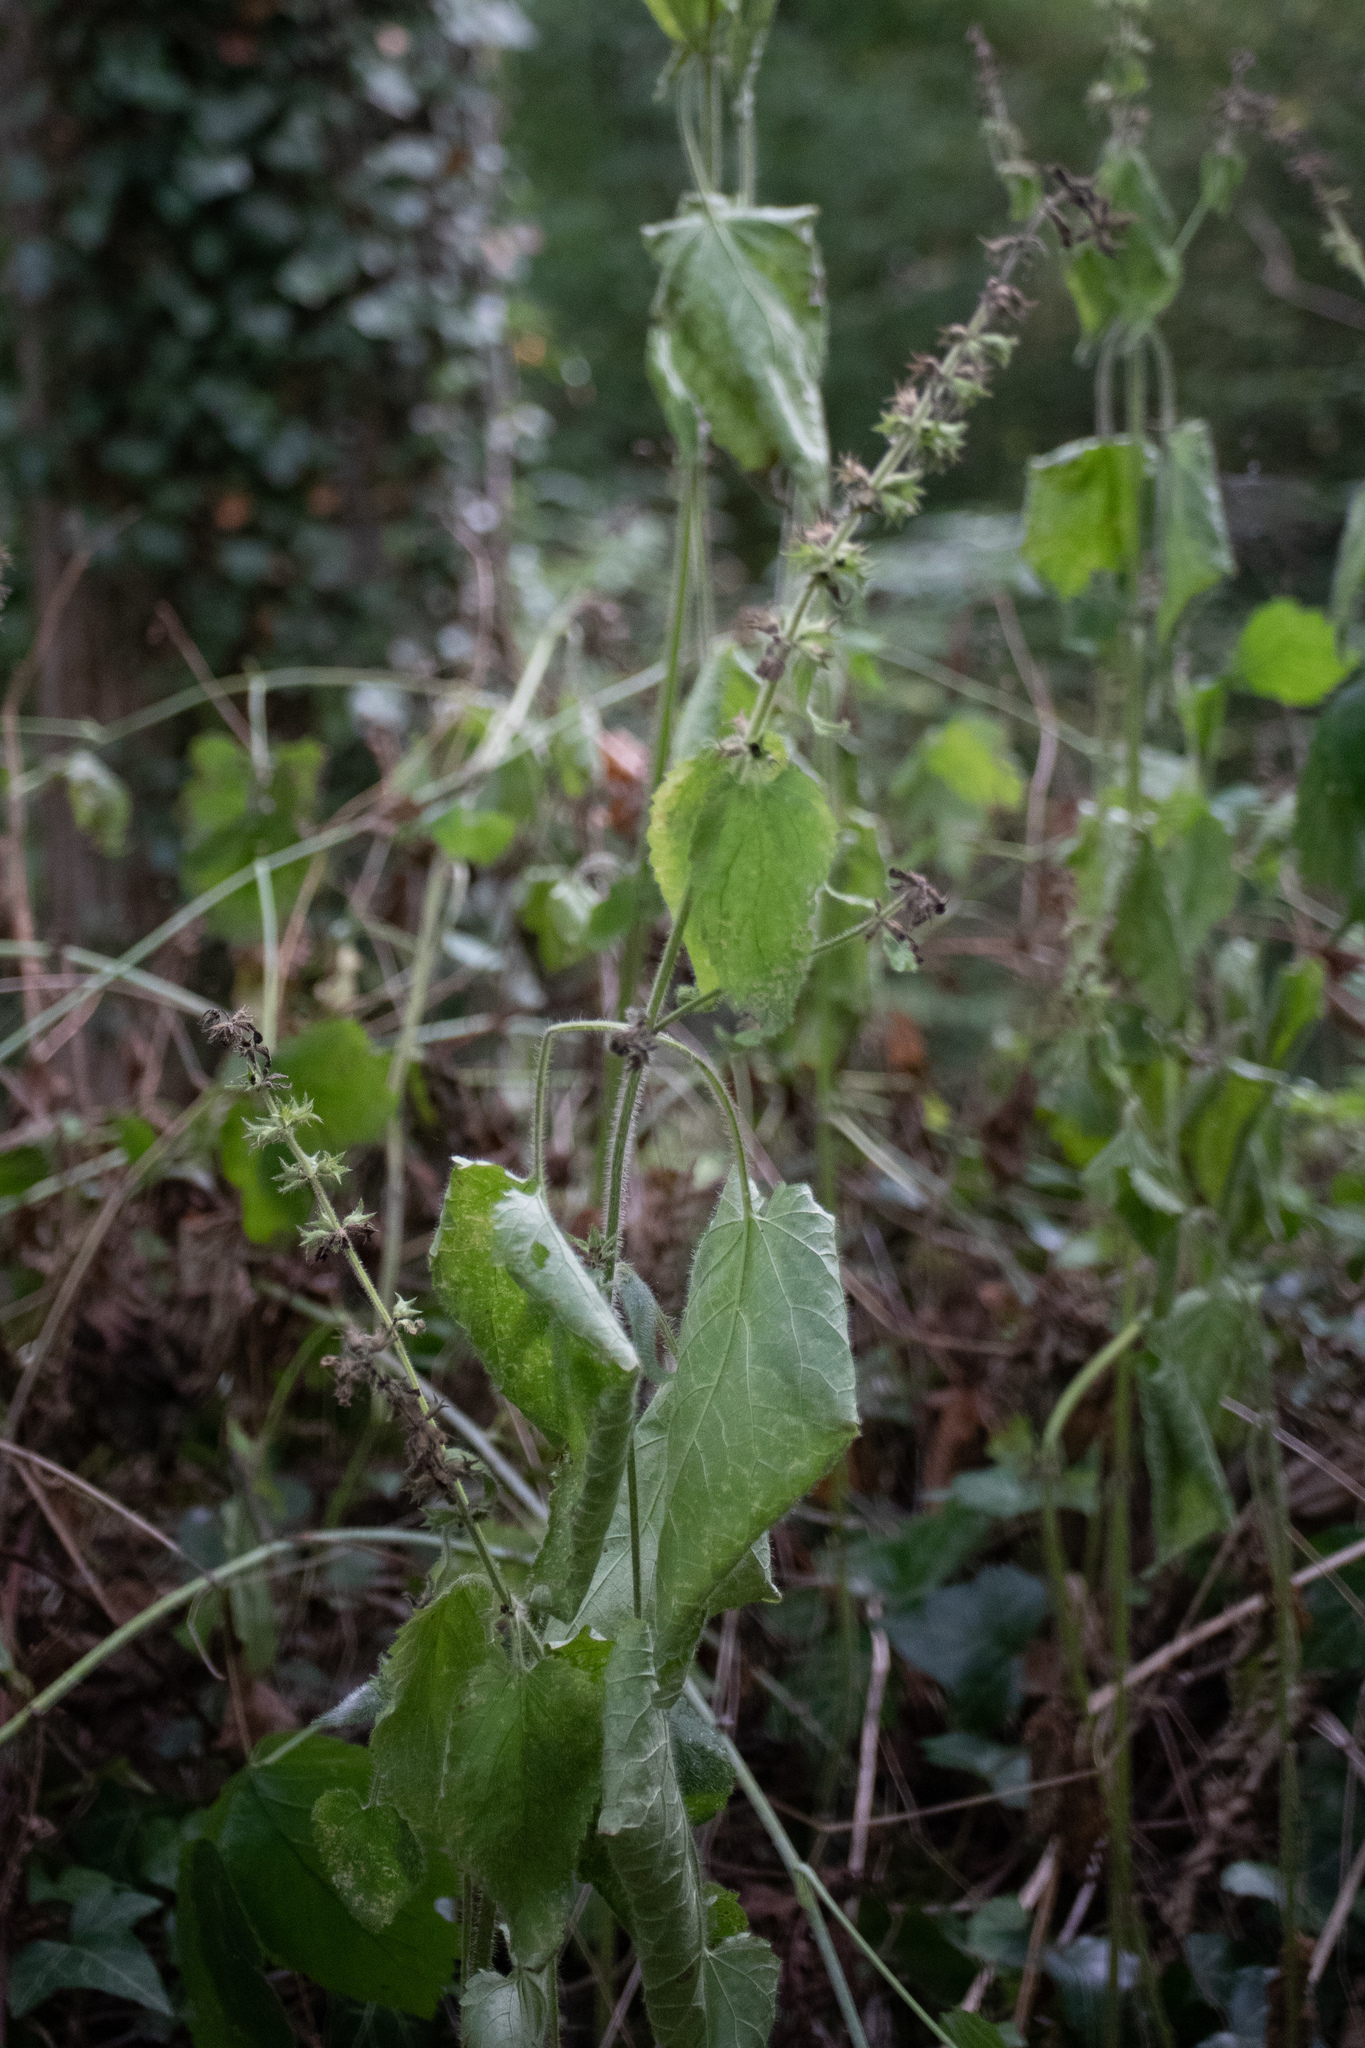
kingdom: Plantae
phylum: Tracheophyta
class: Magnoliopsida
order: Lamiales
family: Lamiaceae
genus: Stachys
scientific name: Stachys sylvatica
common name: Hedge woundwort
